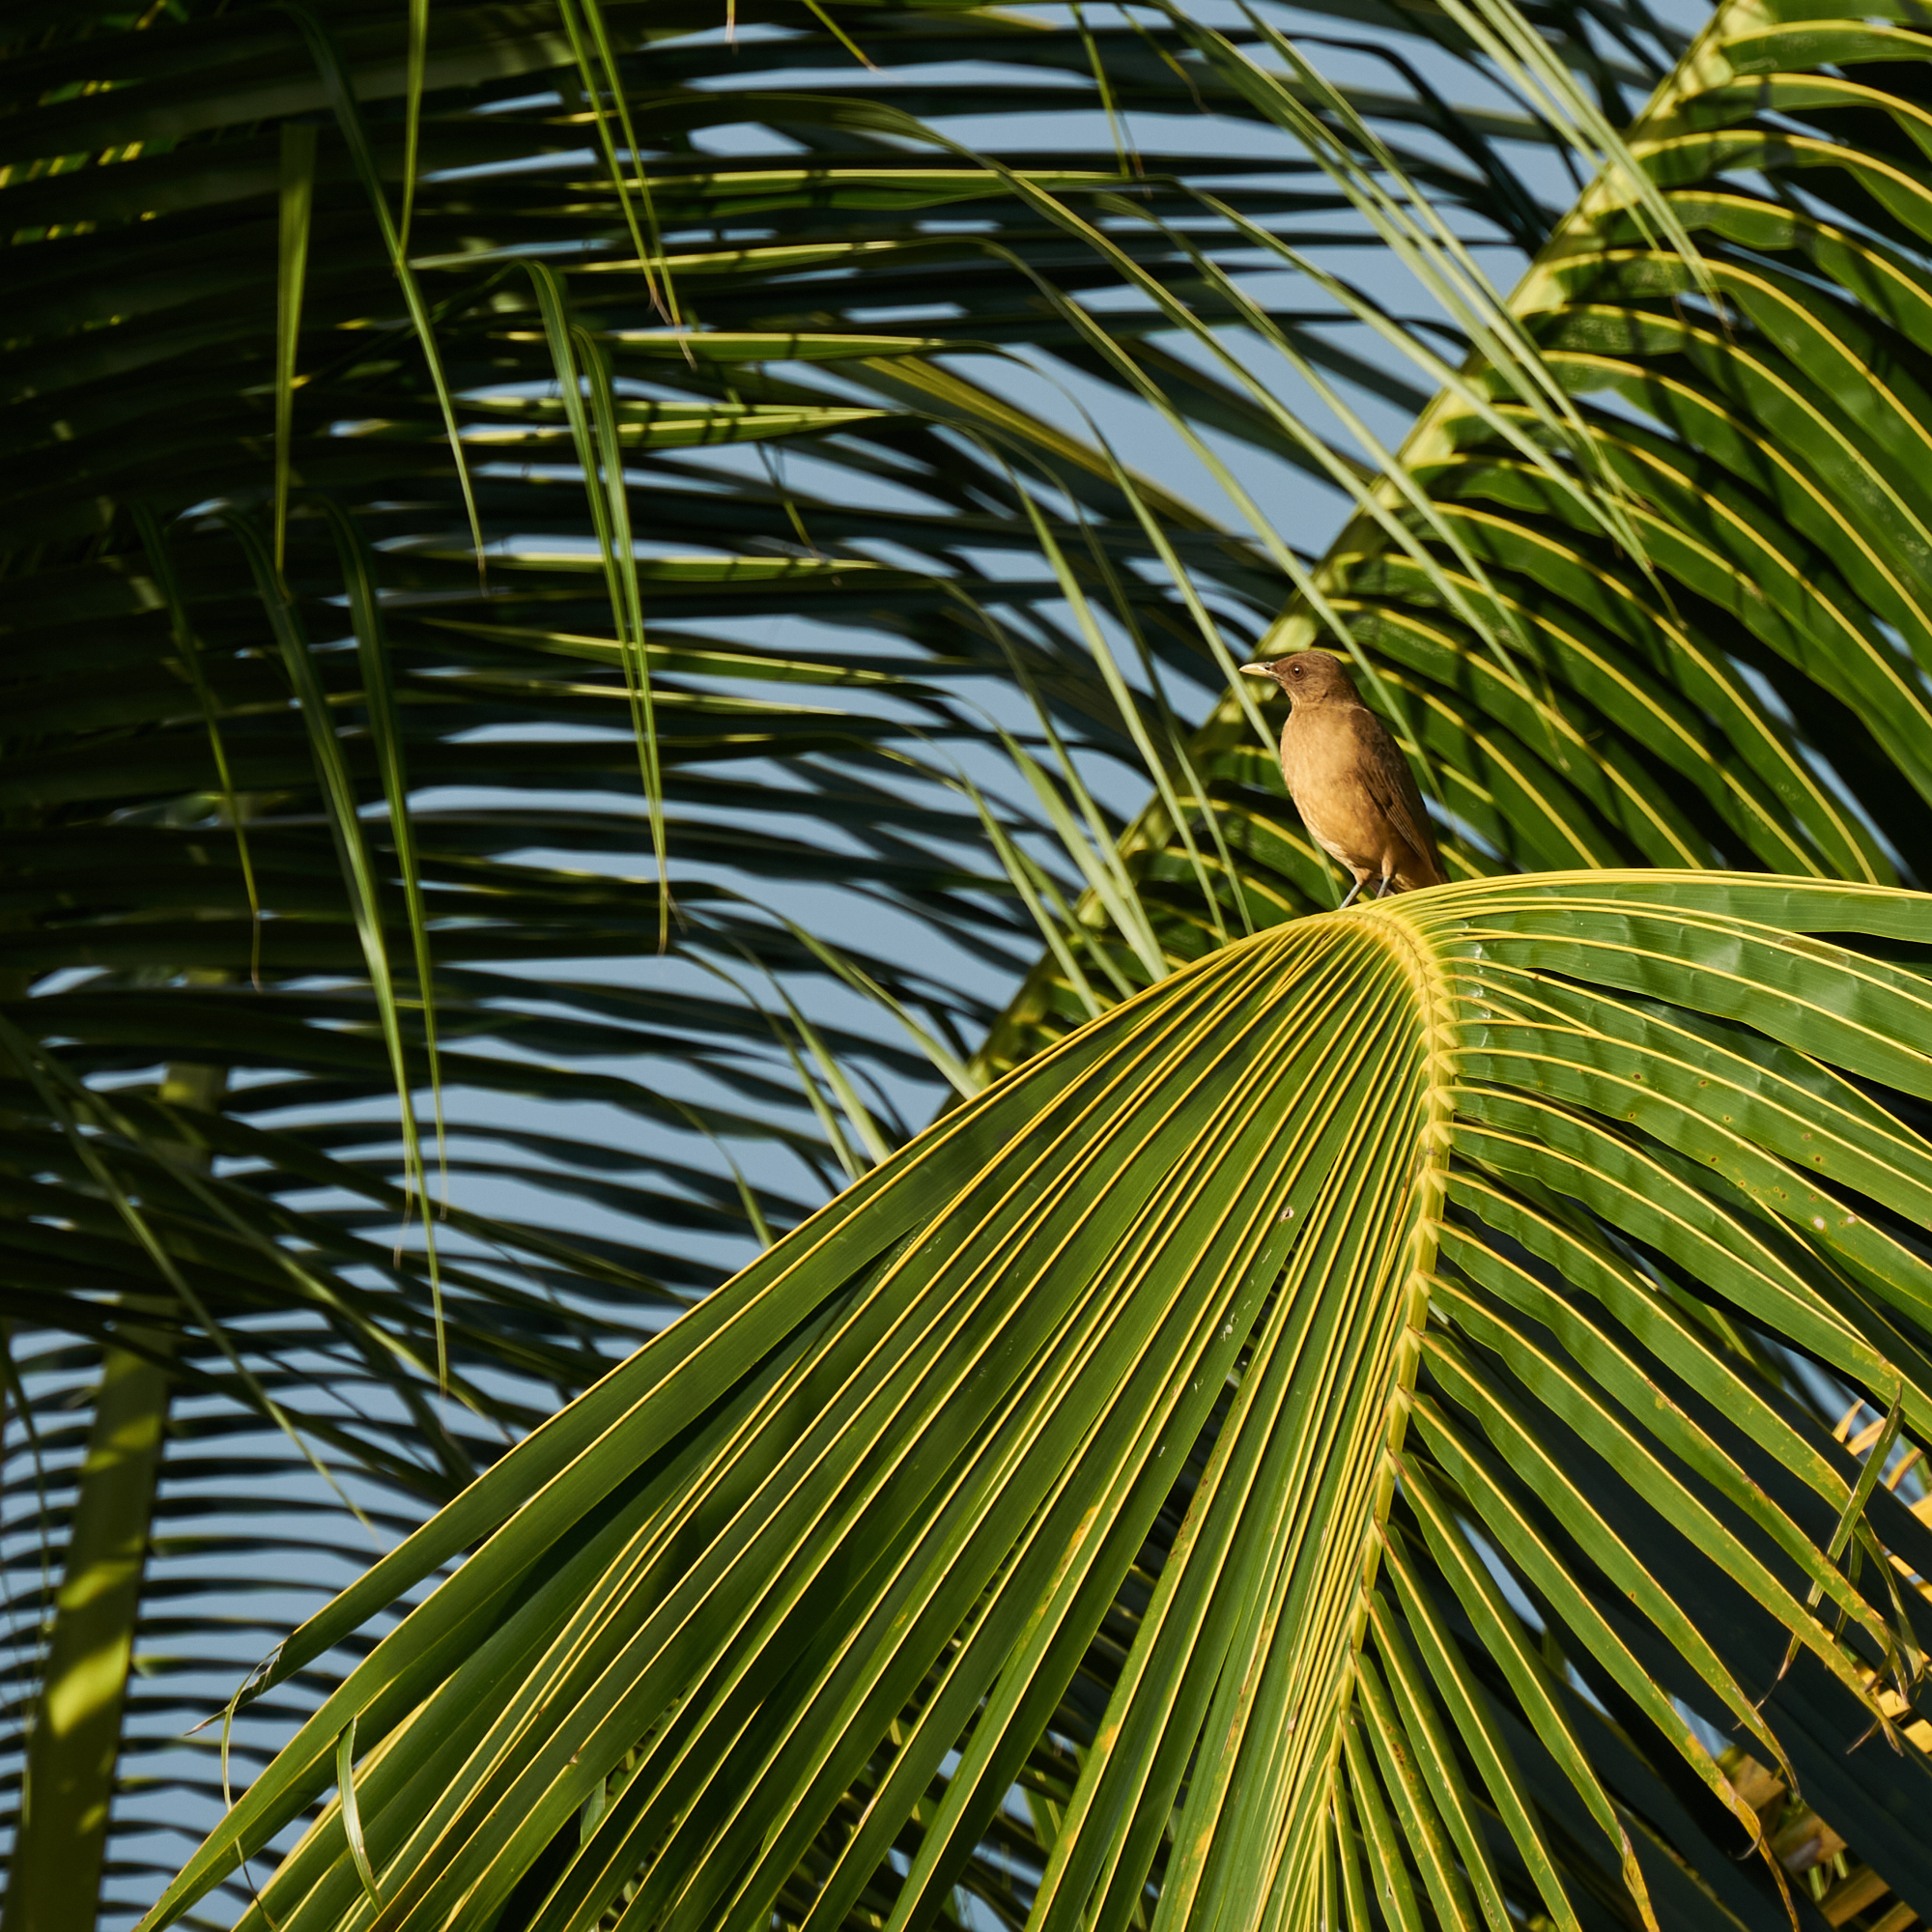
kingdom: Animalia
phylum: Chordata
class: Aves
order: Passeriformes
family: Turdidae
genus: Turdus
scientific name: Turdus grayi
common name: Clay-colored thrush
